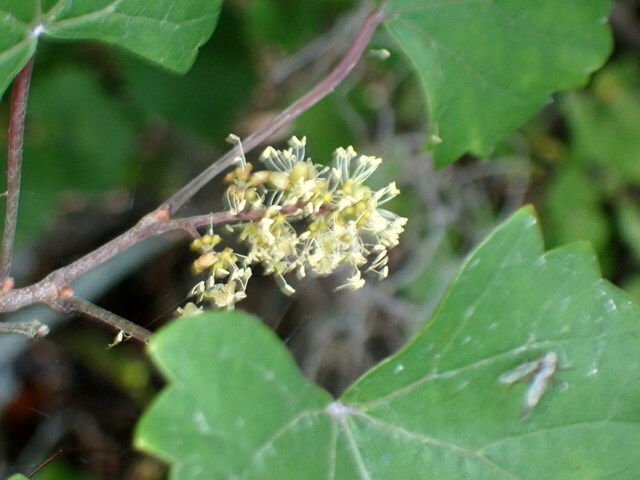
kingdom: Plantae
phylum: Tracheophyta
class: Magnoliopsida
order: Vitales
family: Vitaceae
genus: Vitis
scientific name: Vitis rotundifolia
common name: Muscadine grape
